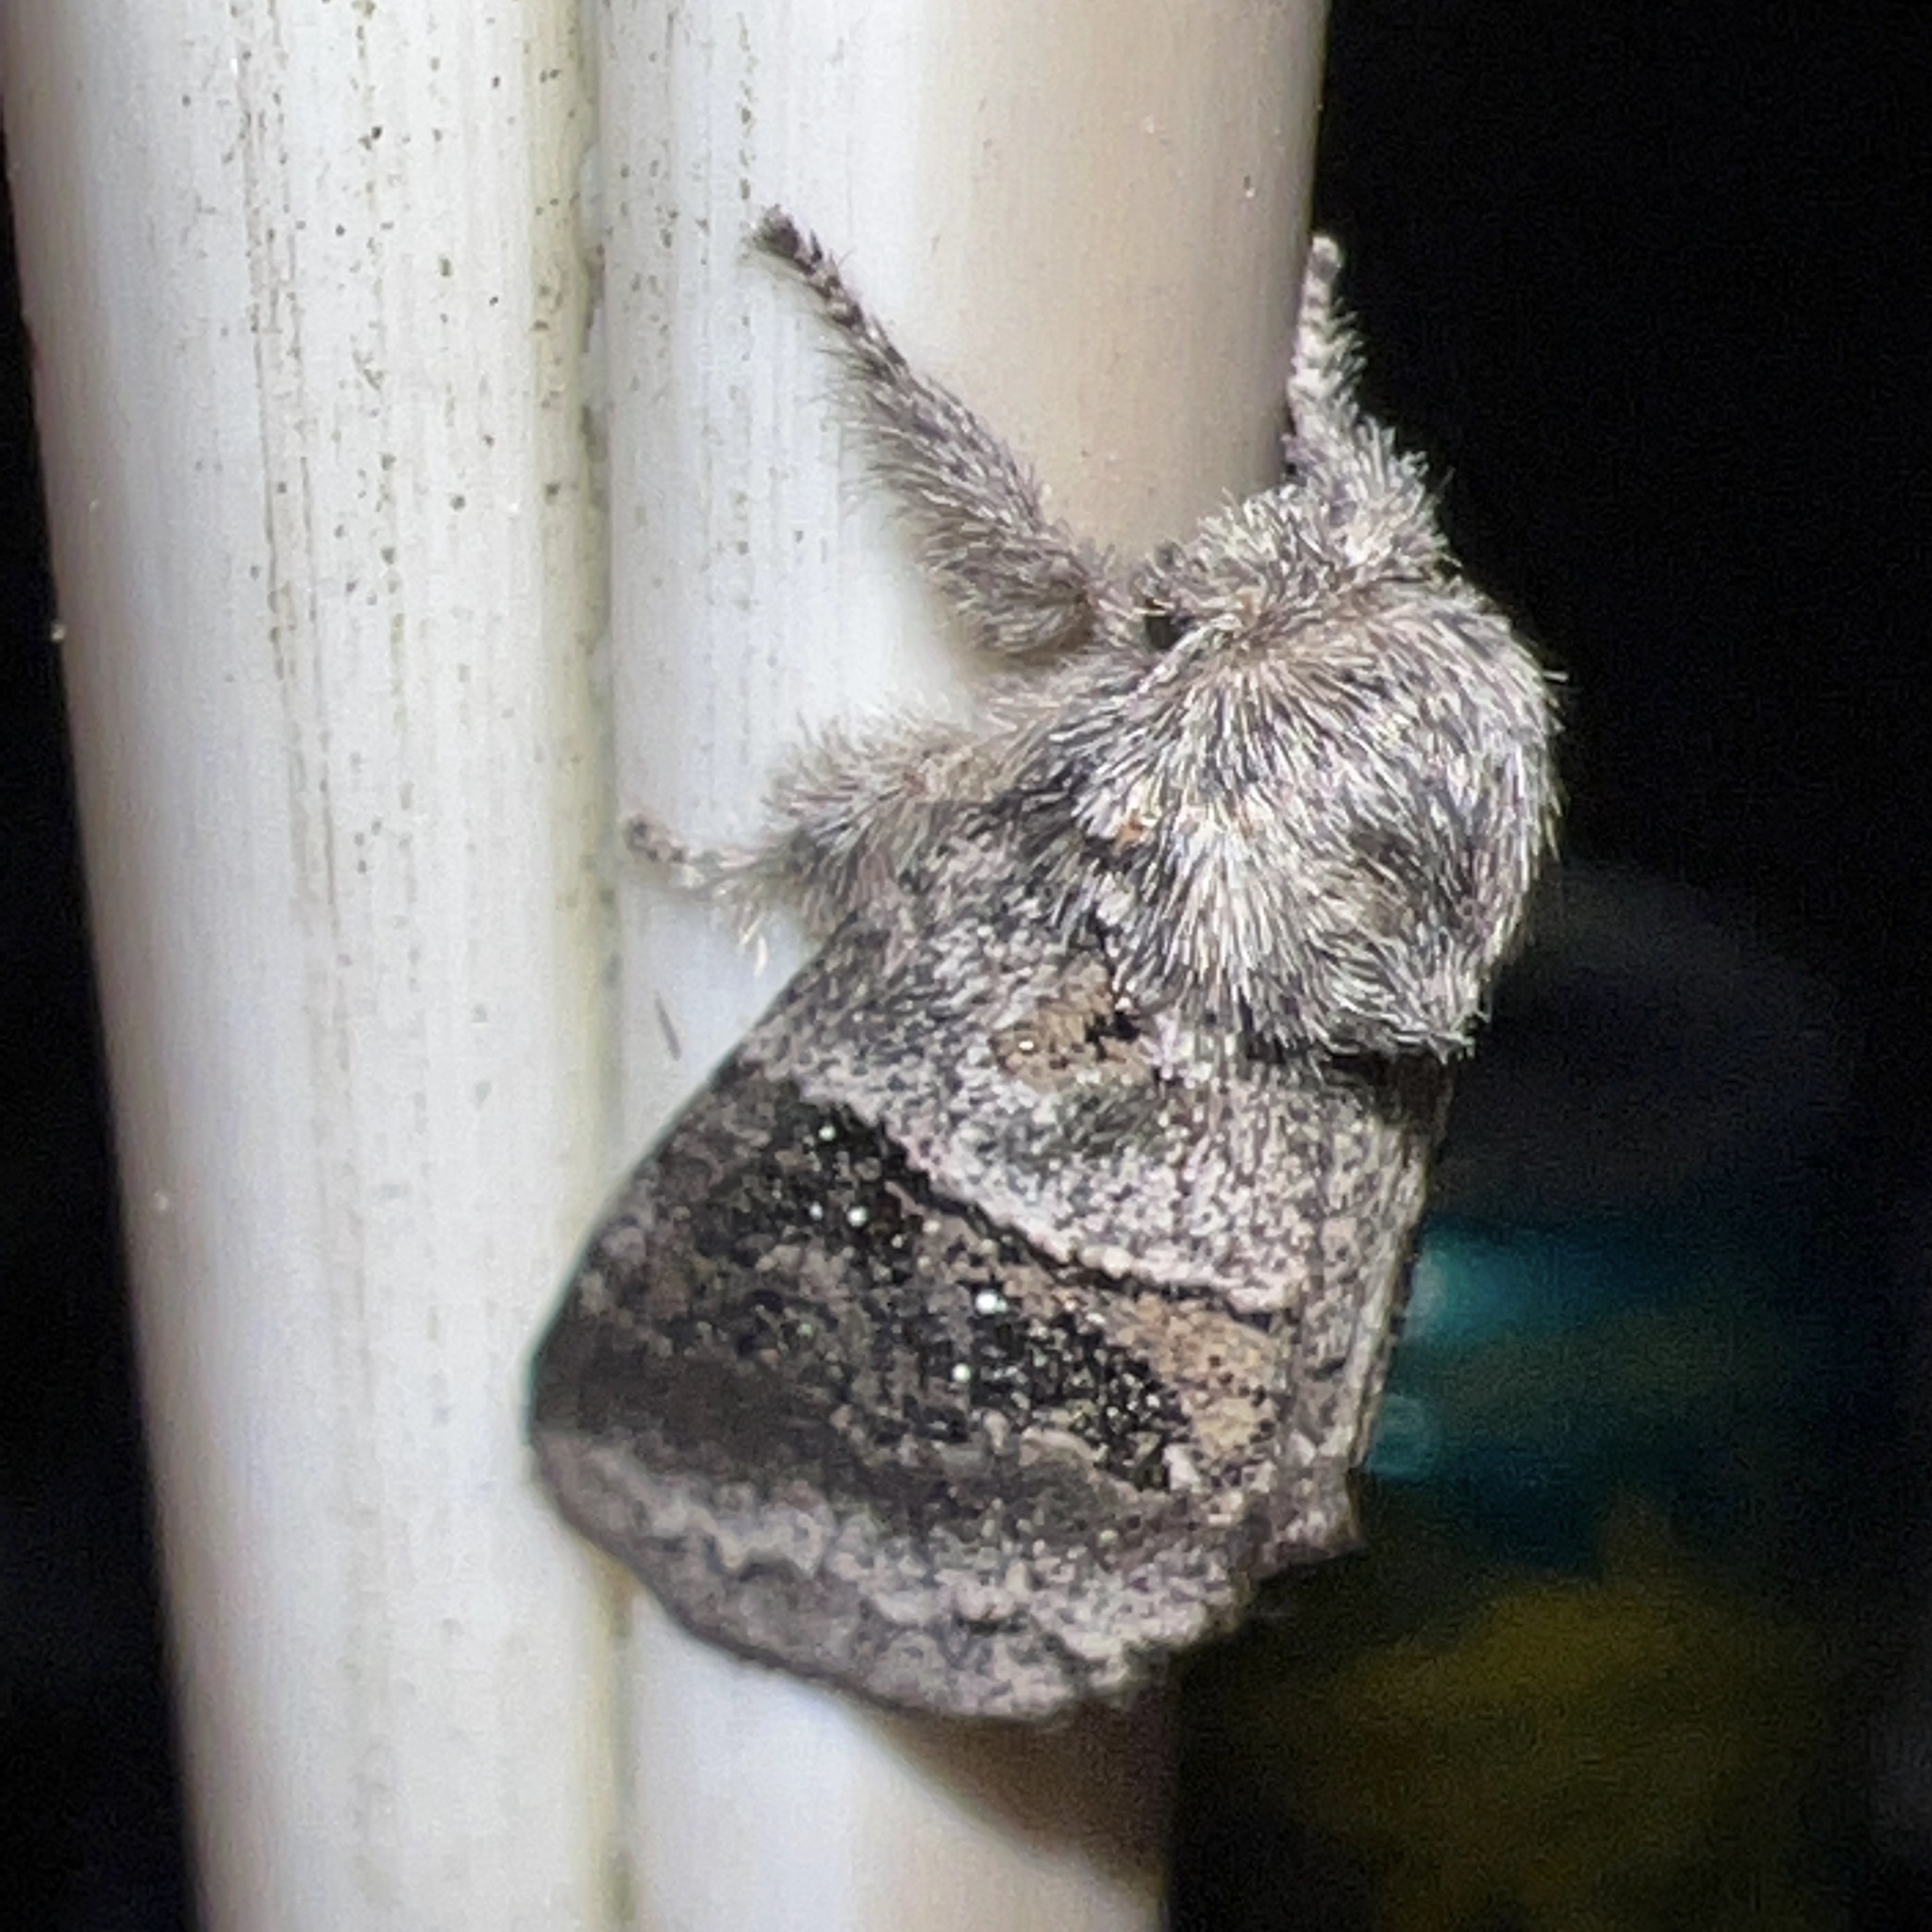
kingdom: Animalia
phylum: Arthropoda
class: Insecta
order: Lepidoptera
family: Notodontidae
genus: Gluphisia
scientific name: Gluphisia septentrionis
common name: Common gluphisia
